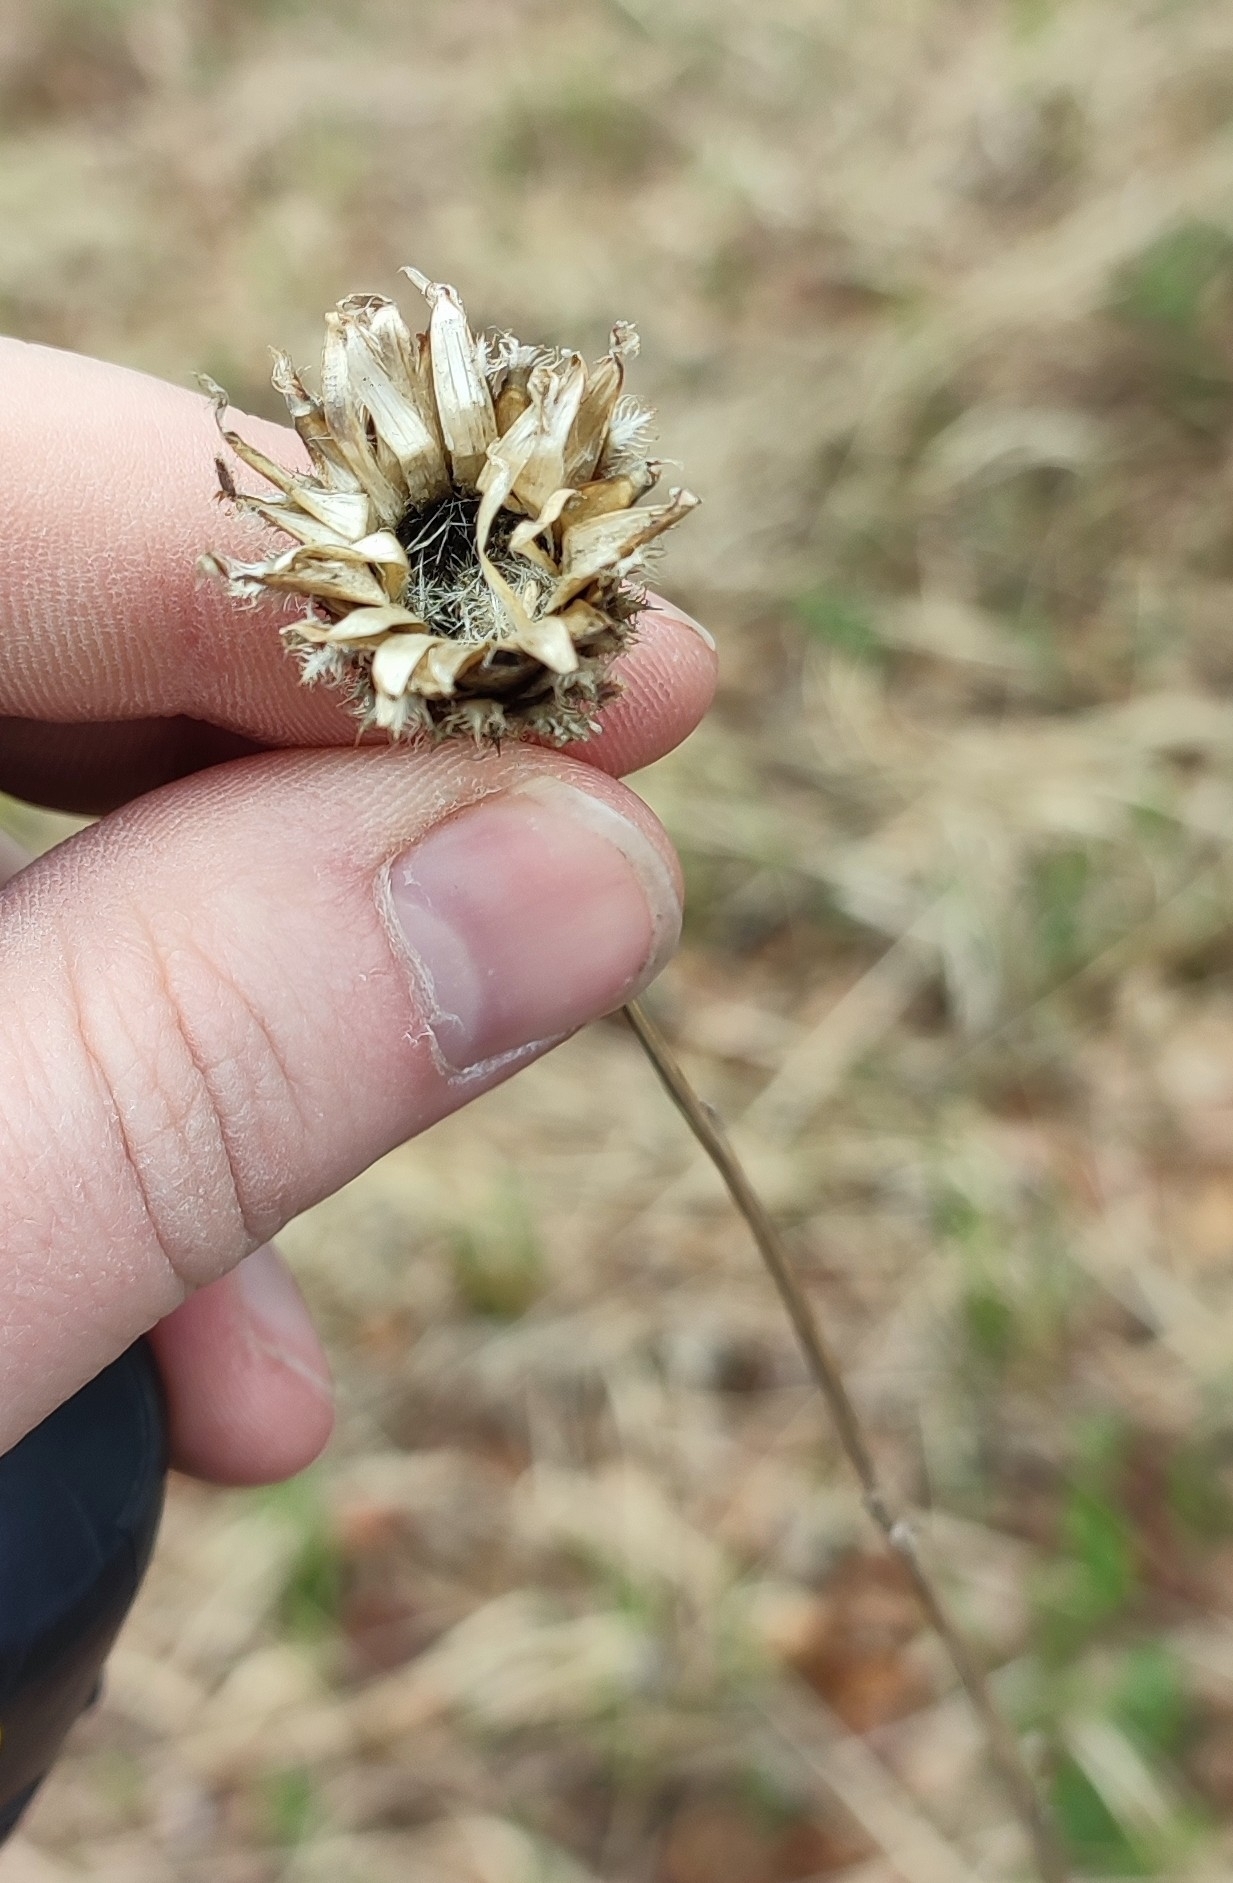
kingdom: Plantae
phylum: Tracheophyta
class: Magnoliopsida
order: Asterales
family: Asteraceae
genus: Centaurea
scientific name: Centaurea scabiosa
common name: Greater knapweed
